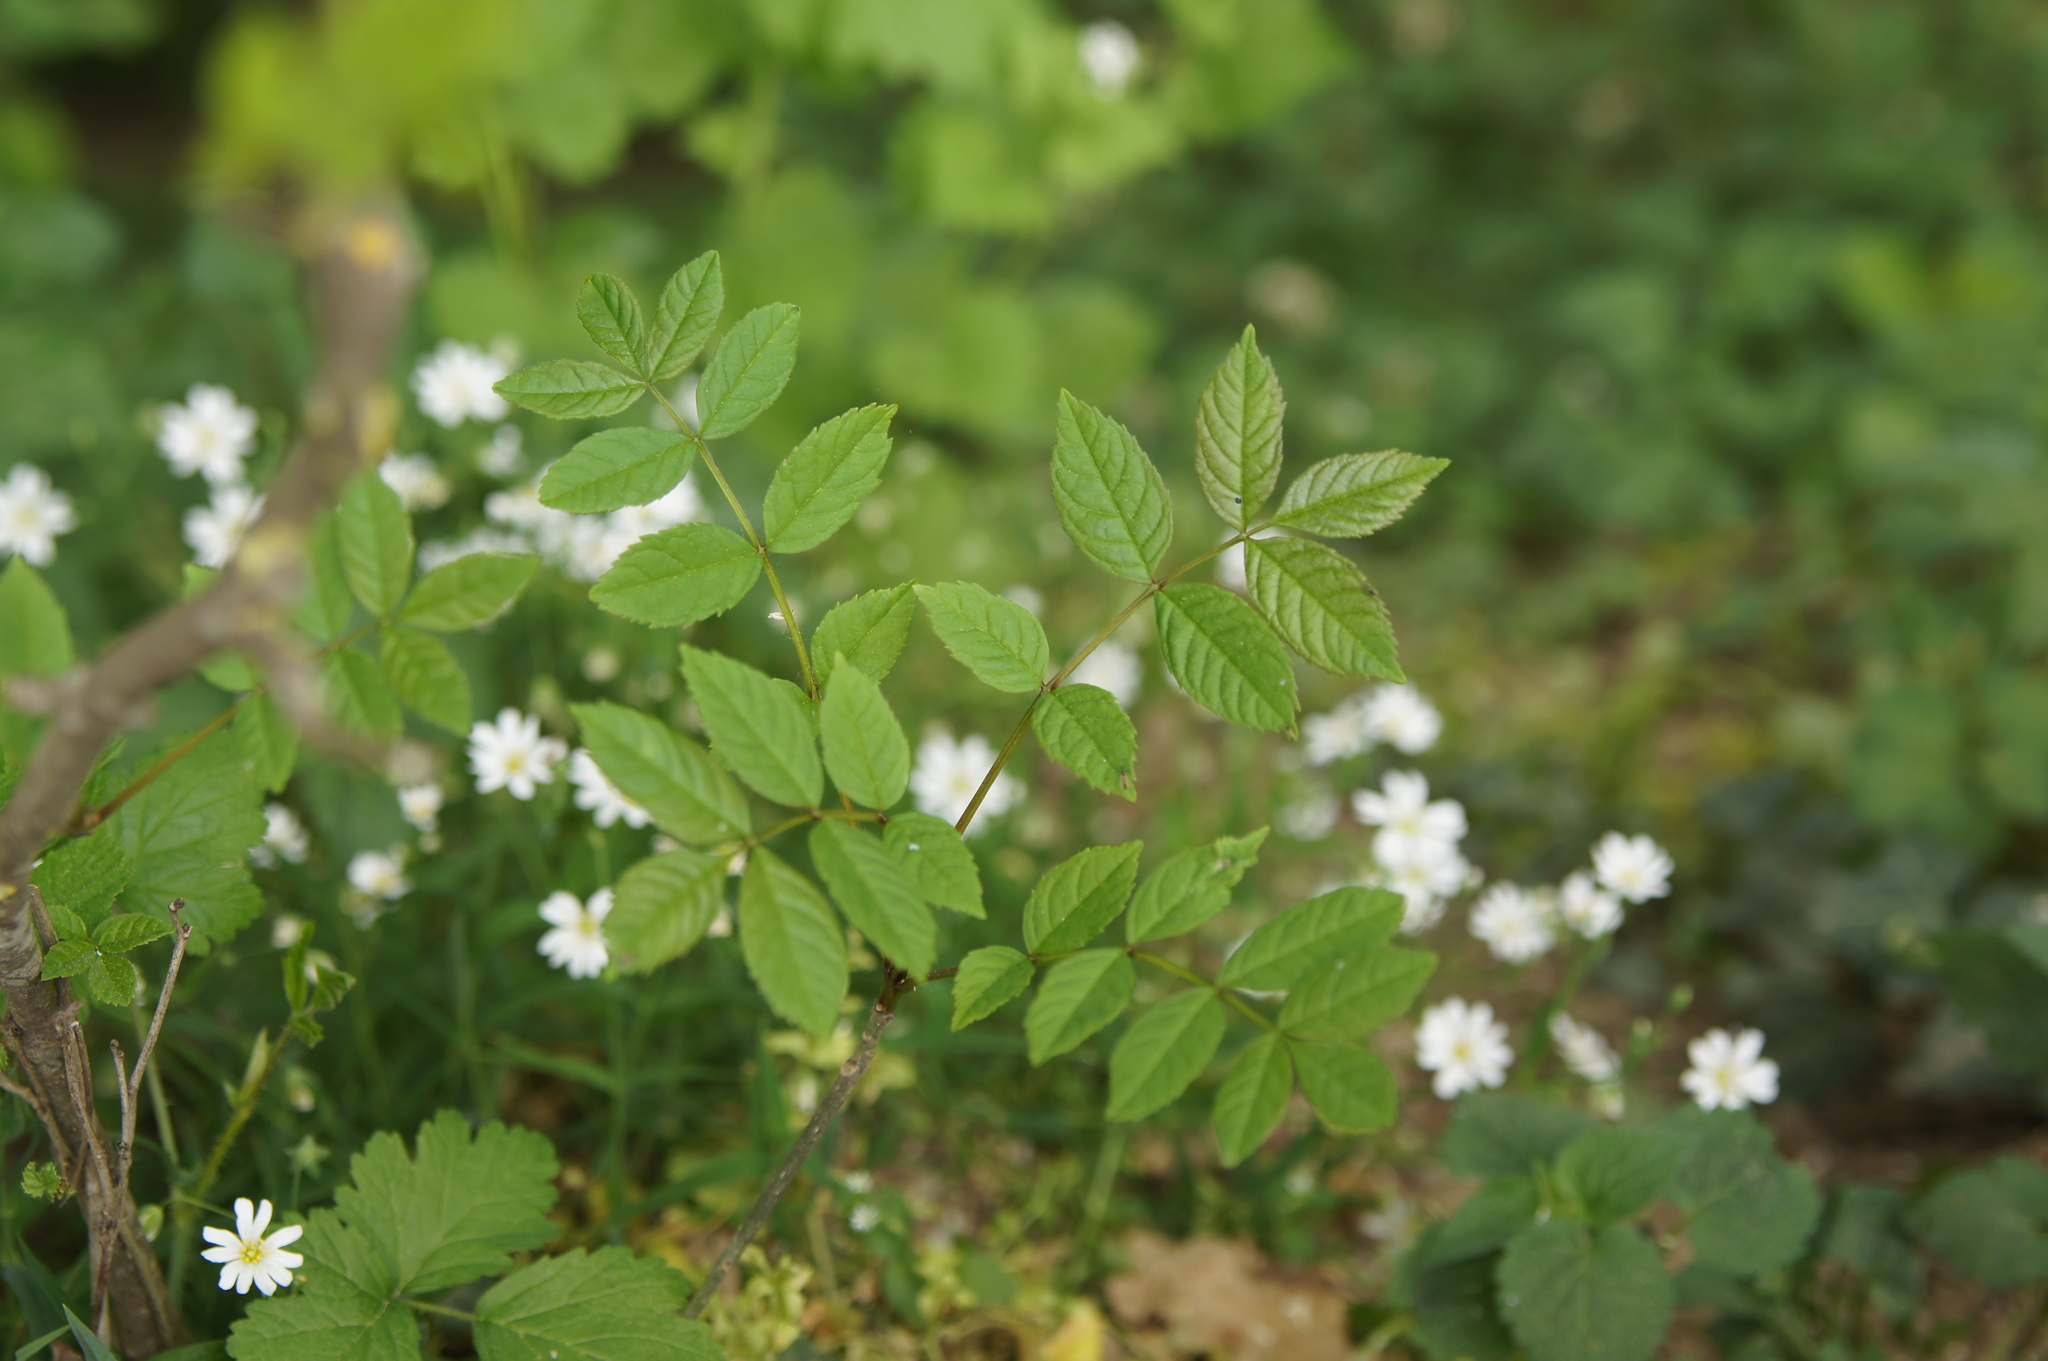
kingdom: Plantae
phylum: Tracheophyta
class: Magnoliopsida
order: Lamiales
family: Oleaceae
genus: Fraxinus
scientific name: Fraxinus excelsior
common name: European ash
